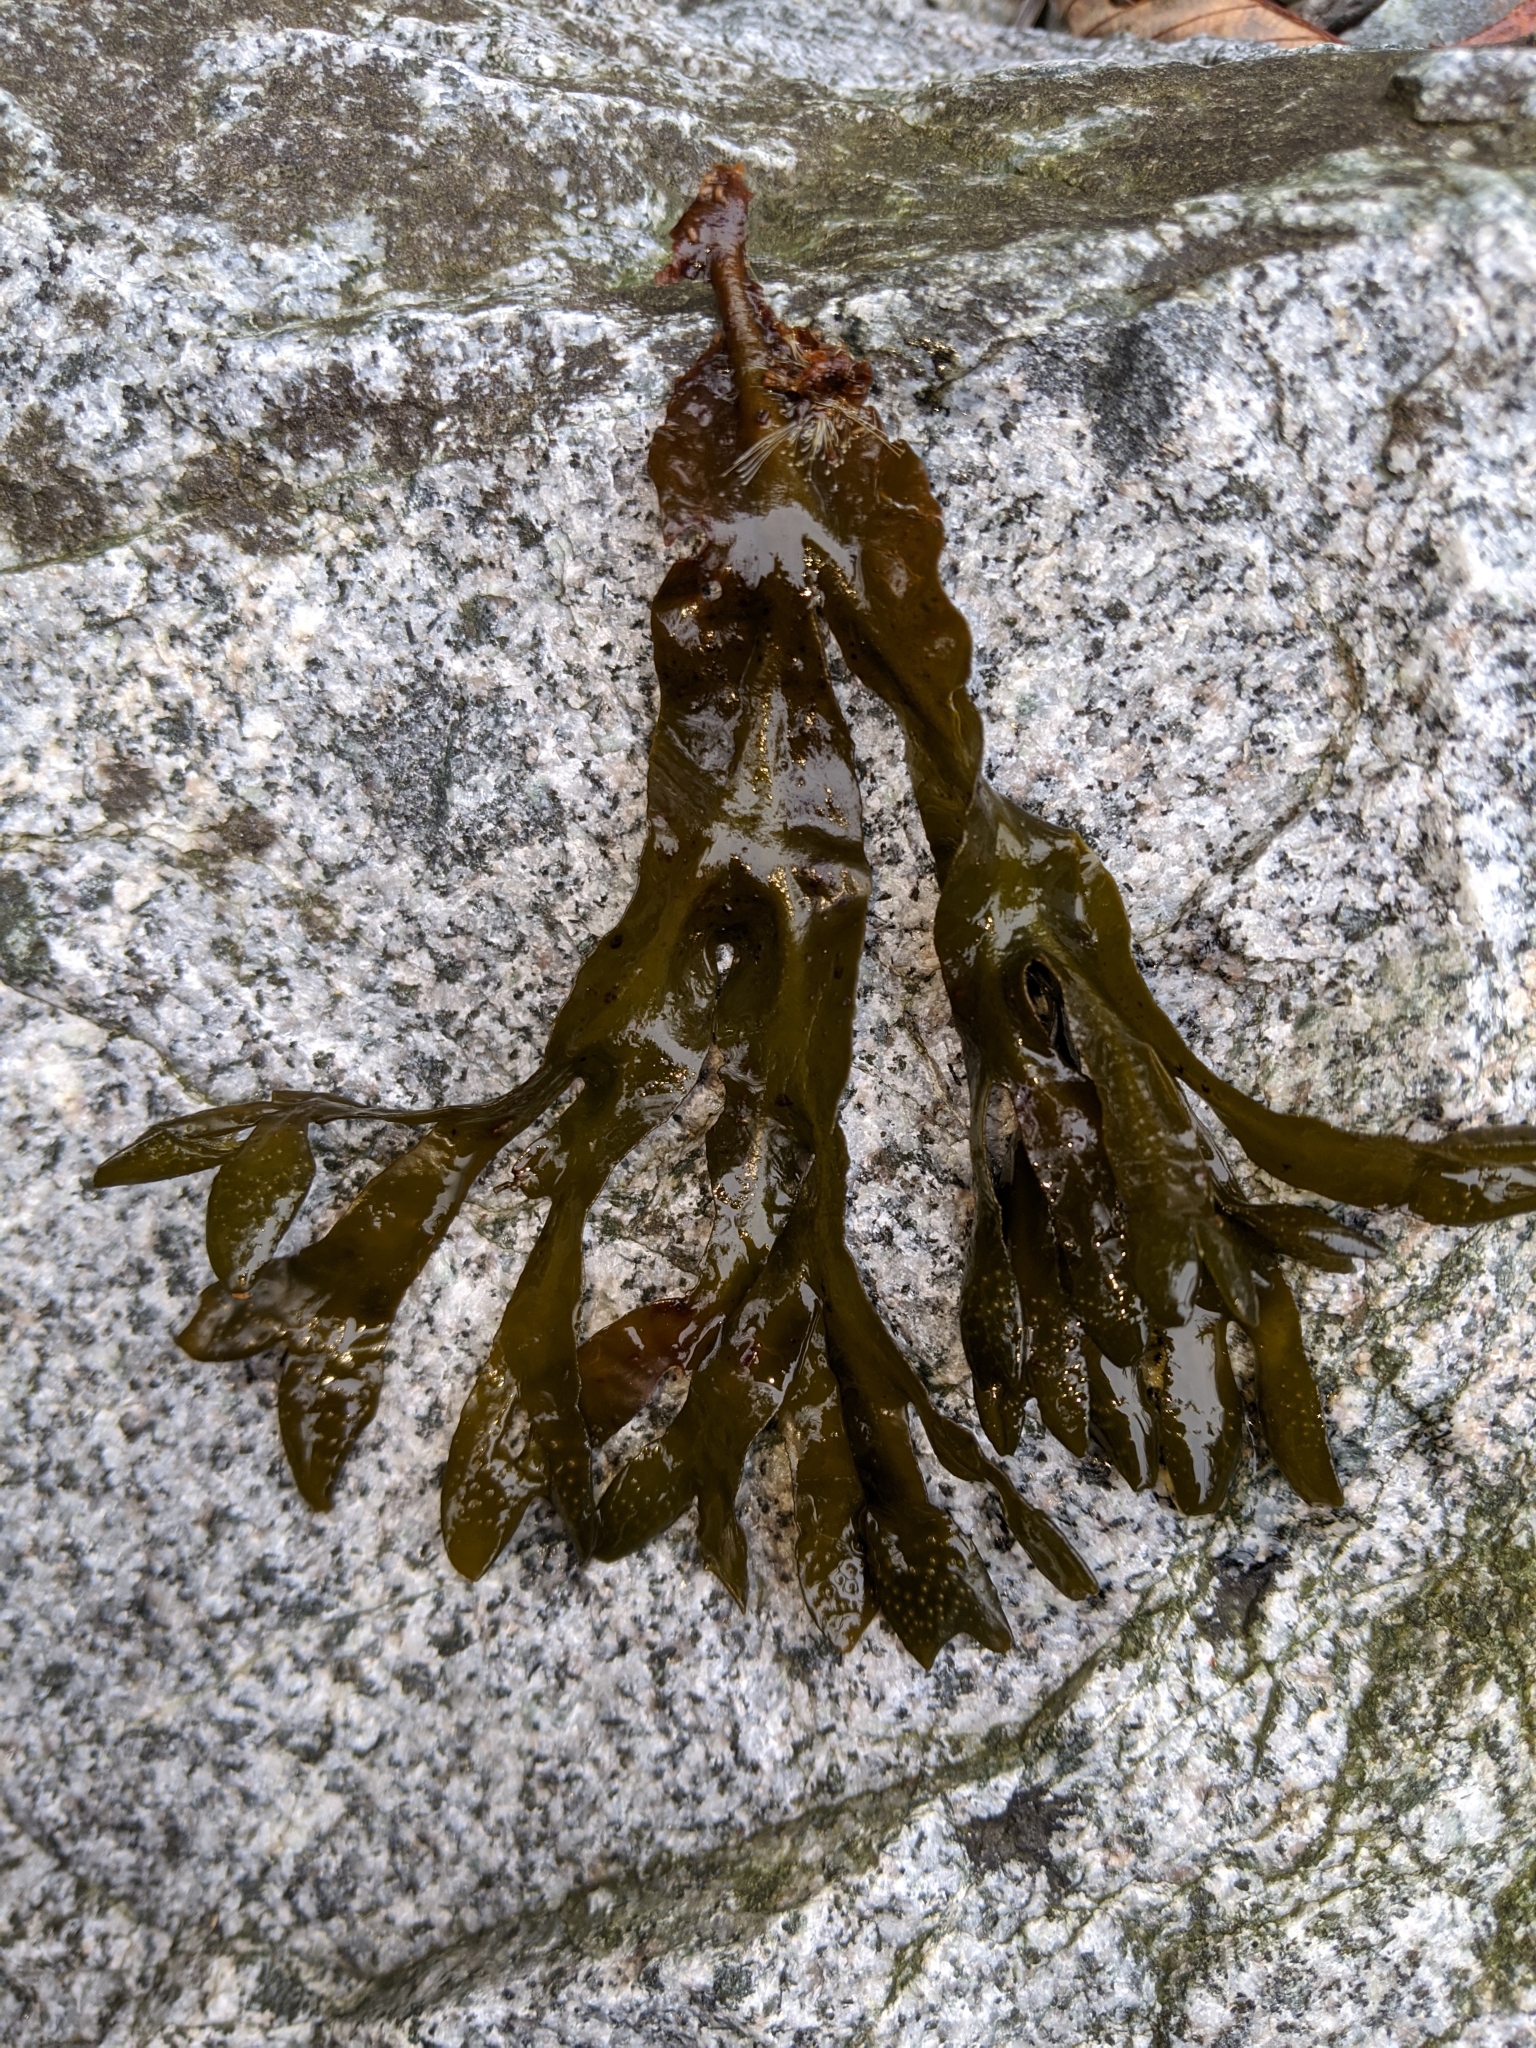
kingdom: Chromista
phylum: Ochrophyta
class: Phaeophyceae
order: Fucales
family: Fucaceae
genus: Fucus
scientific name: Fucus distichus
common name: Rockweed
